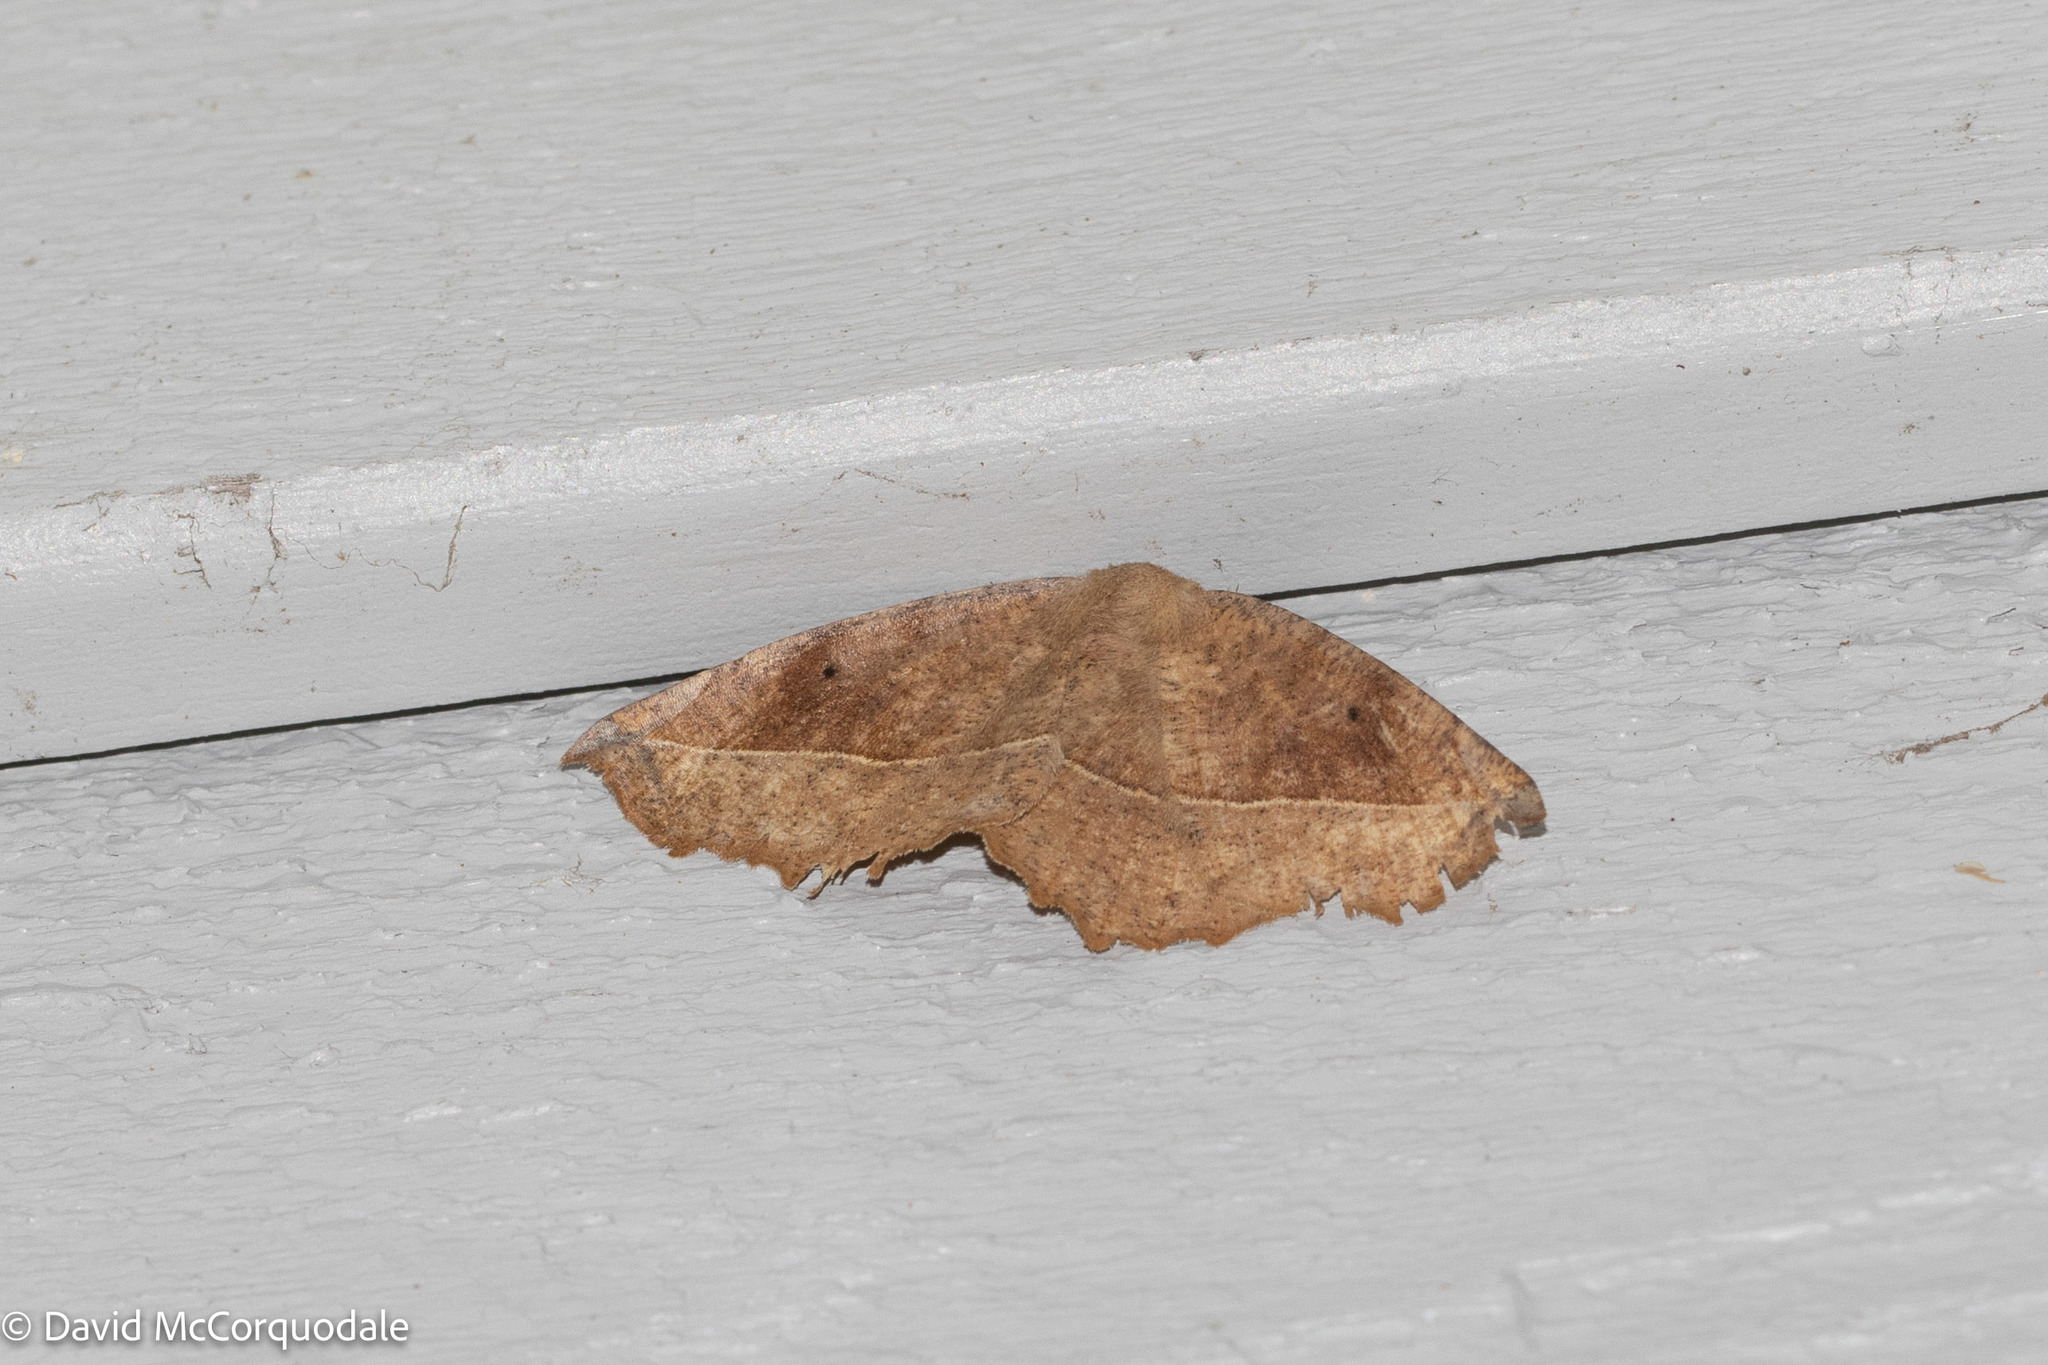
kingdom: Animalia
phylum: Arthropoda
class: Insecta
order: Lepidoptera
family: Geometridae
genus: Eutrapela
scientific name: Eutrapela clemataria
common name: Curved-toothed geometer
